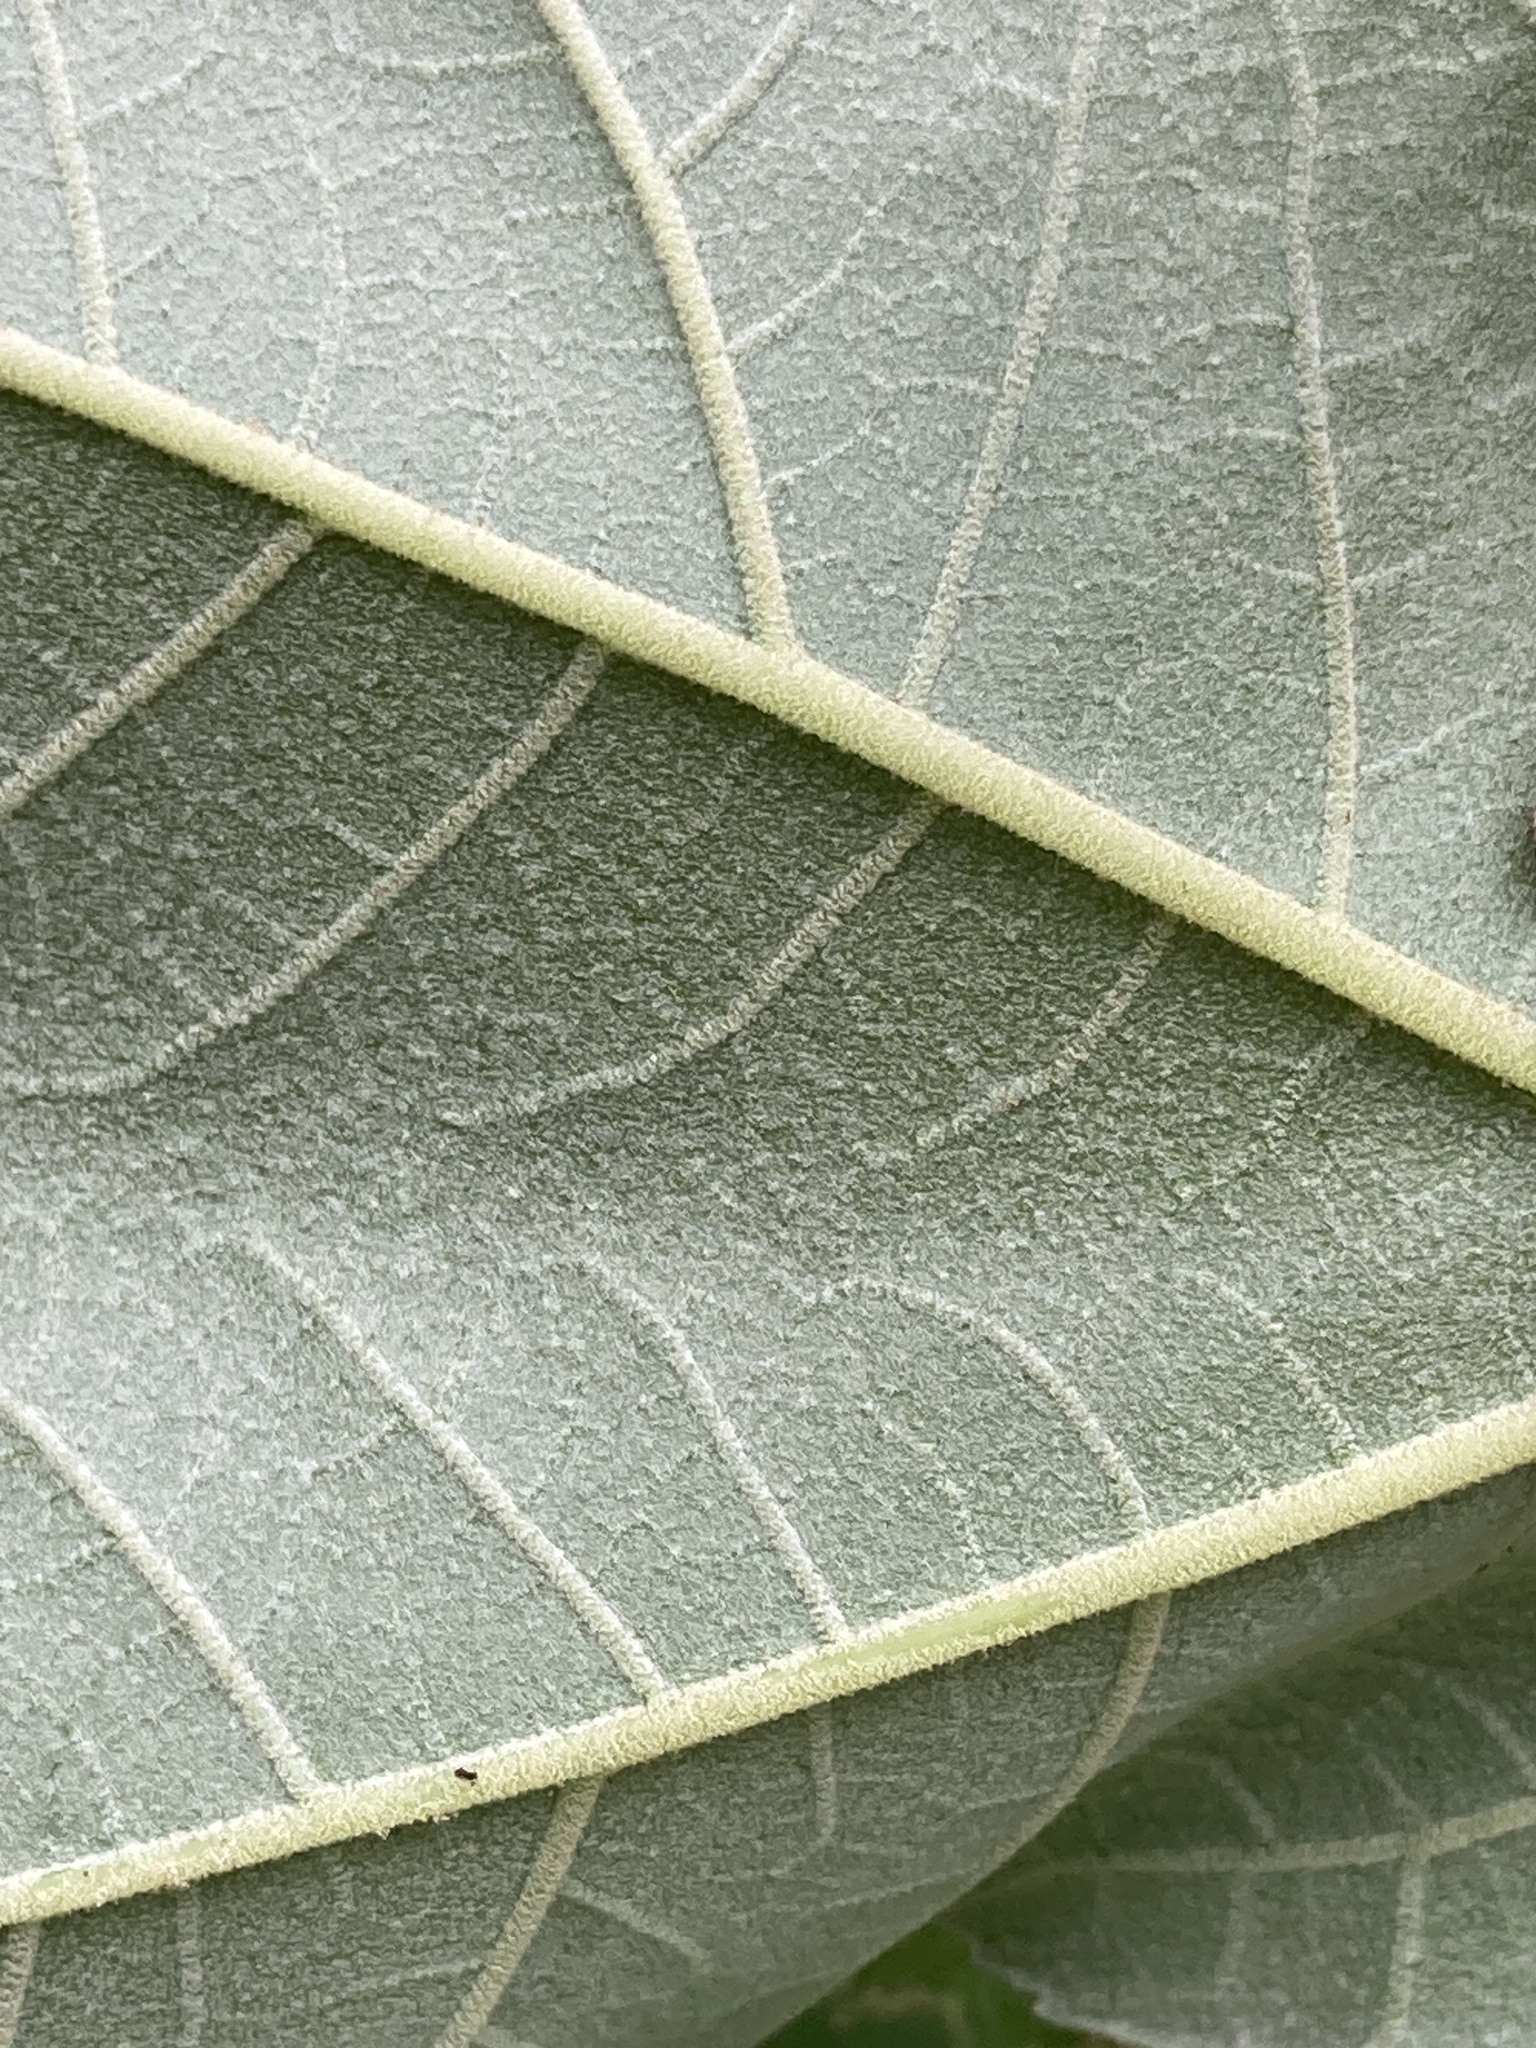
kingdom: Plantae
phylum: Tracheophyta
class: Magnoliopsida
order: Apiales
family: Araliaceae
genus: Tetrapanax
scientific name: Tetrapanax papyrifer
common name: Rice-paper plant
